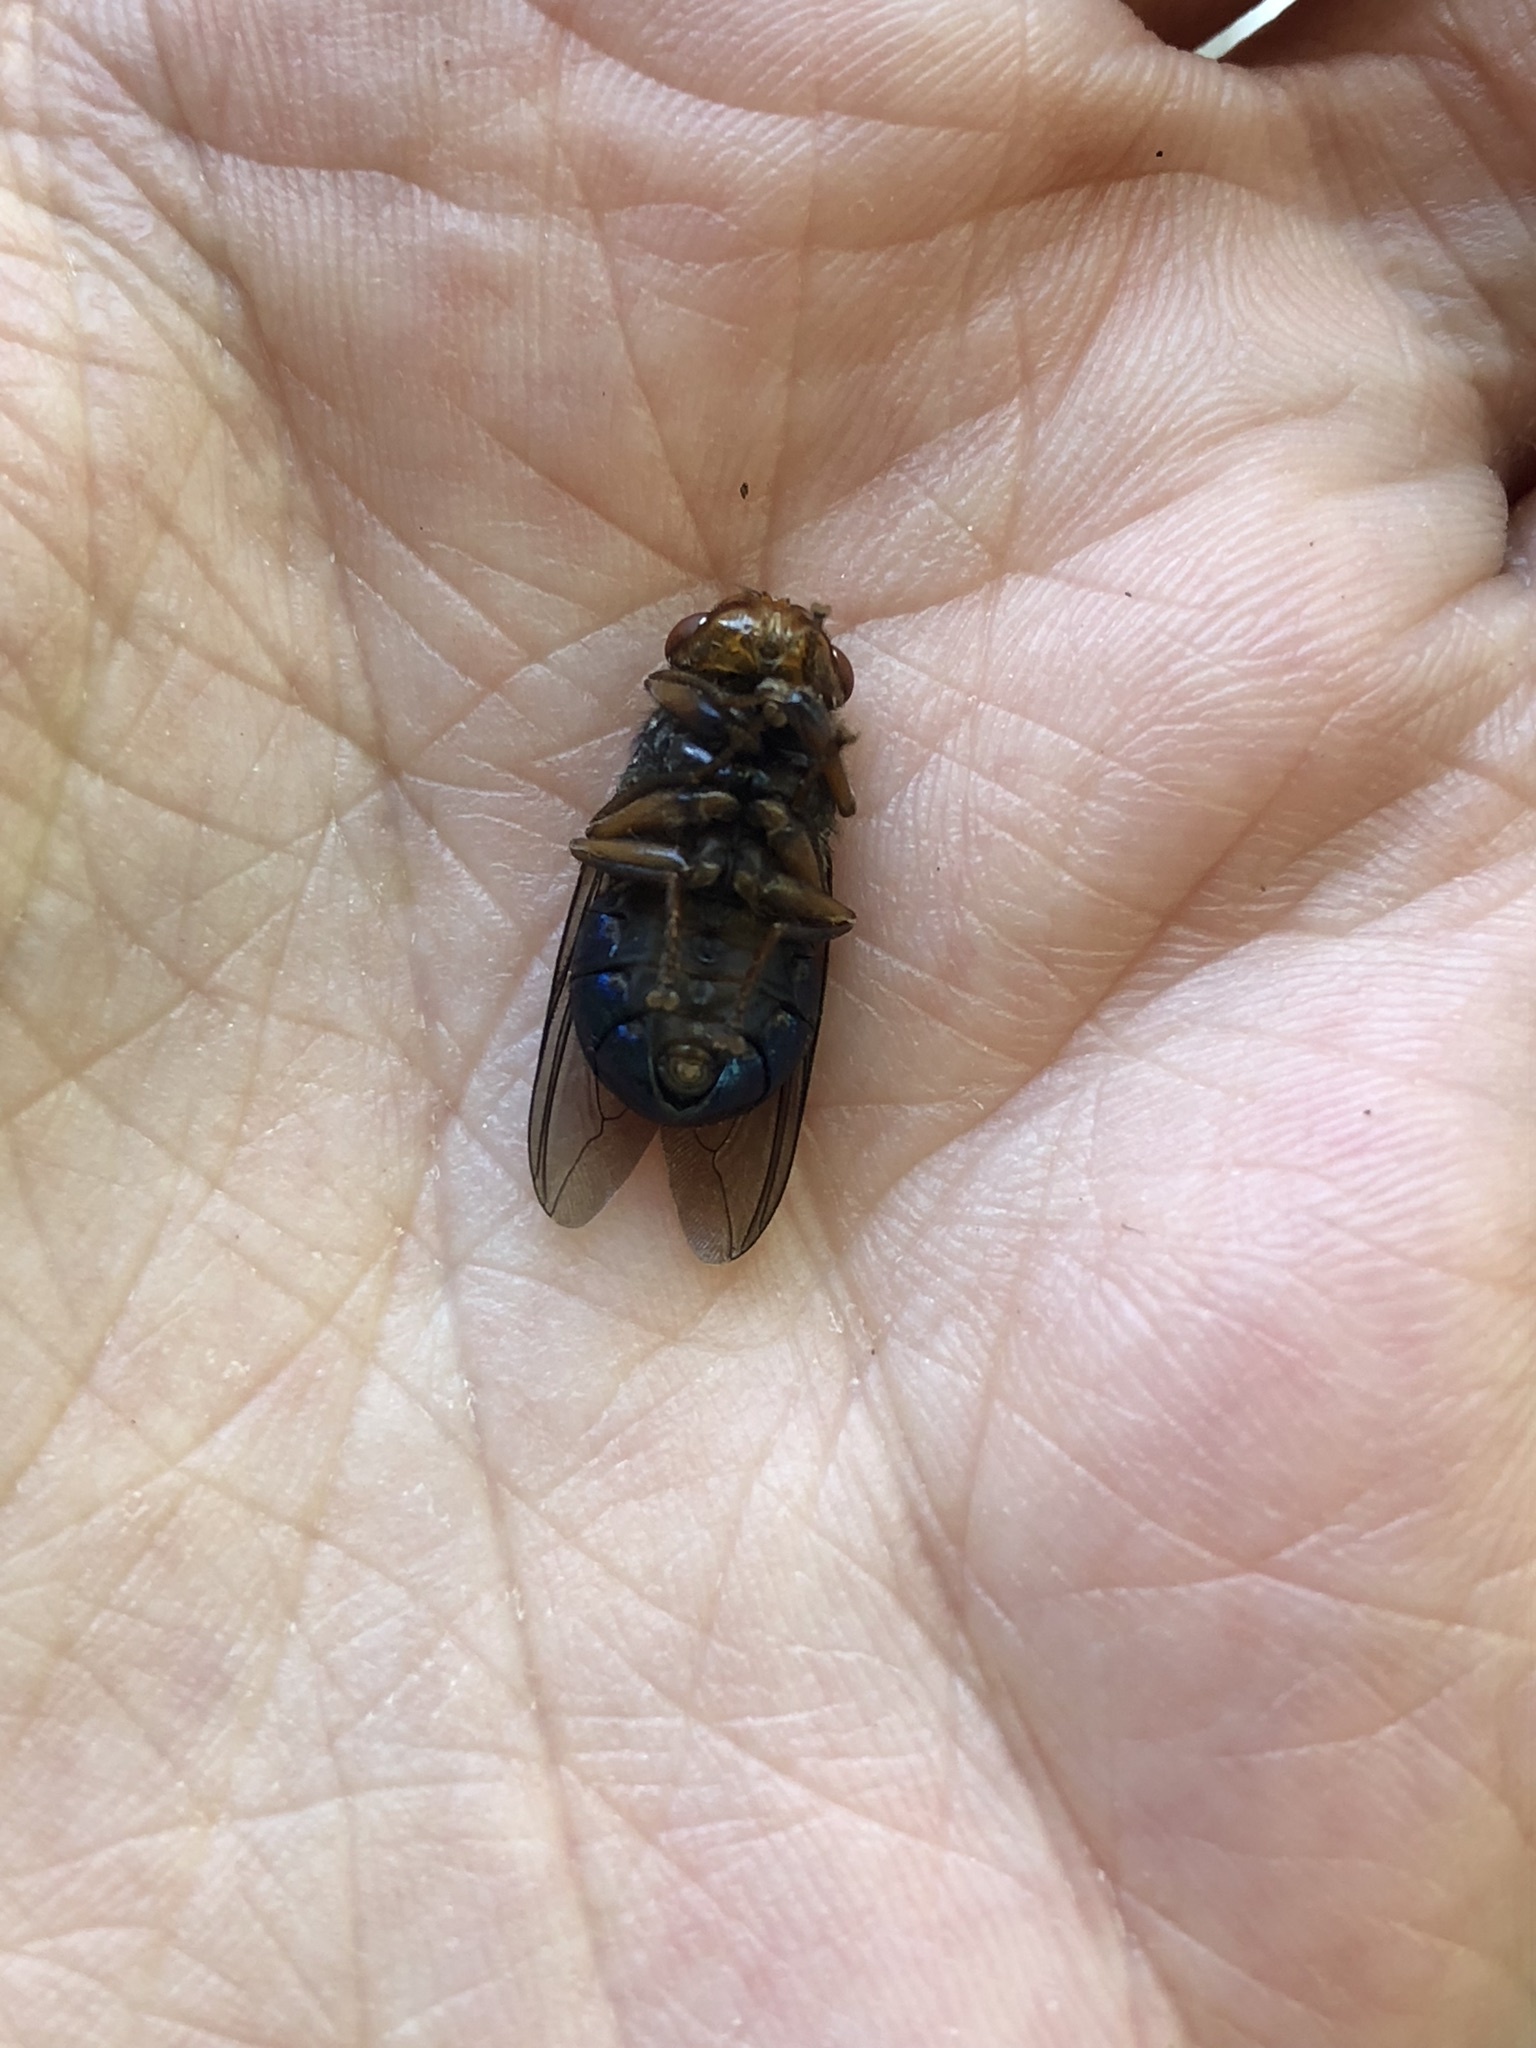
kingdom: Animalia
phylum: Arthropoda
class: Insecta
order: Diptera
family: Oestridae
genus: Dermatobia
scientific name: Dermatobia hominis
